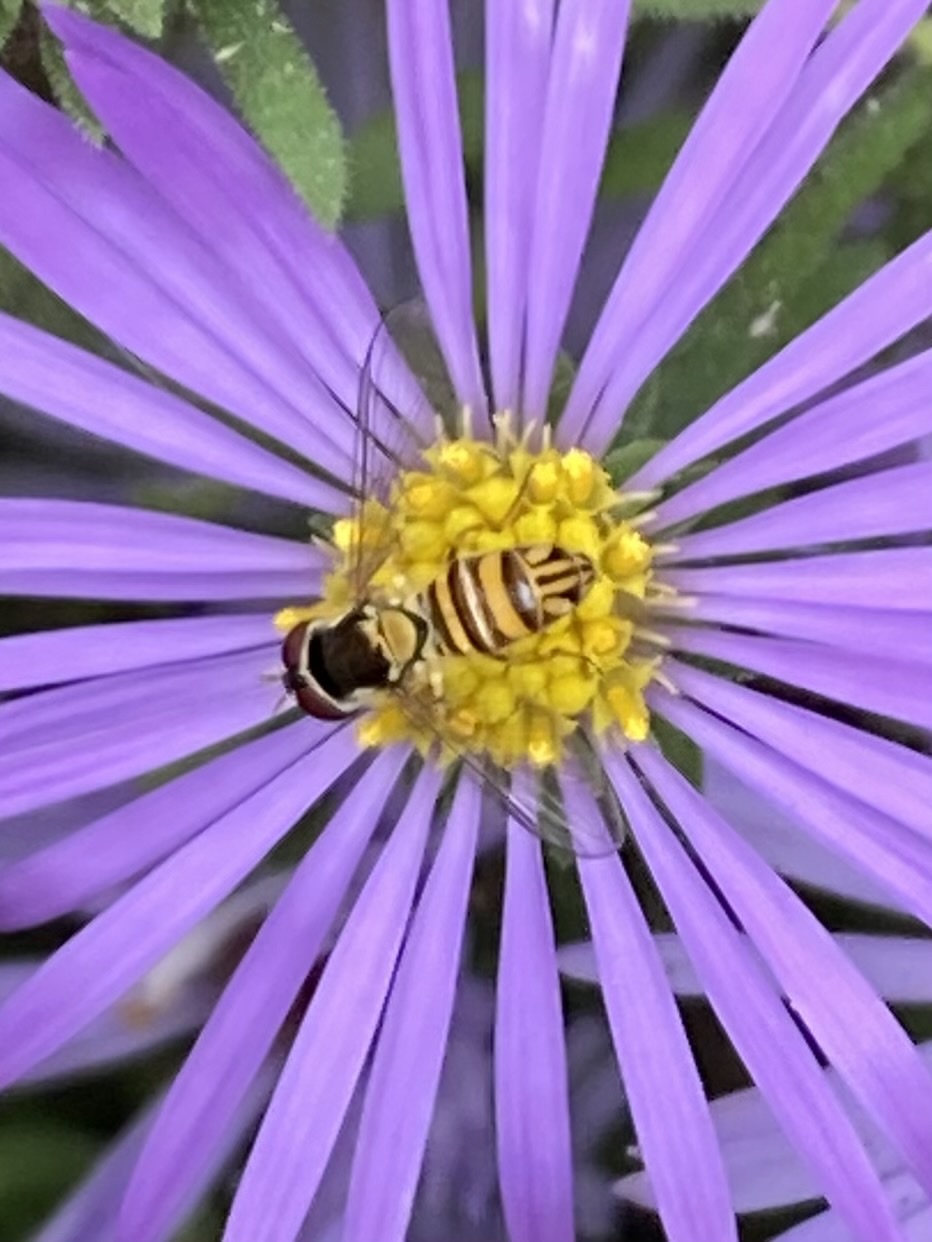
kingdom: Animalia
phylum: Arthropoda
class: Insecta
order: Diptera
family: Syrphidae
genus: Allograpta
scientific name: Allograpta obliqua
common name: Common oblique syrphid
